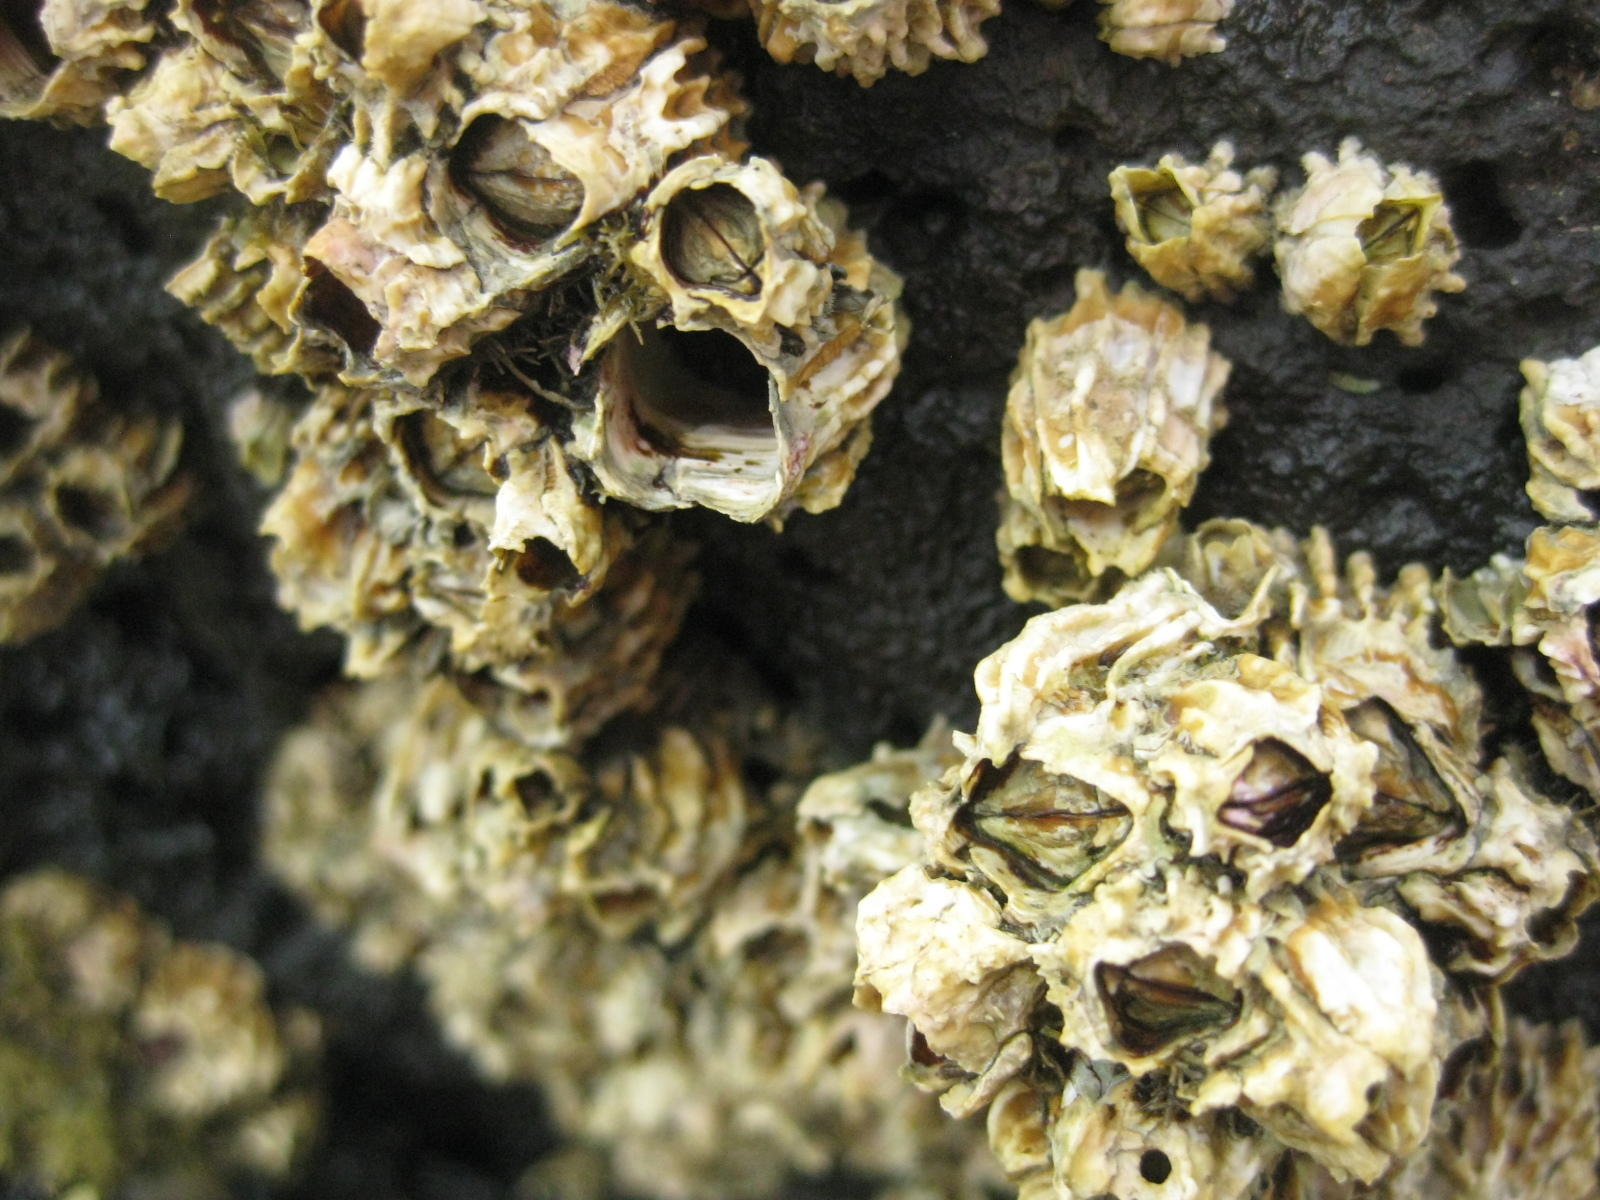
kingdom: Animalia
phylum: Arthropoda
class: Maxillopoda
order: Sessilia
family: Tetraclitidae
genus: Epopella
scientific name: Epopella plicata
